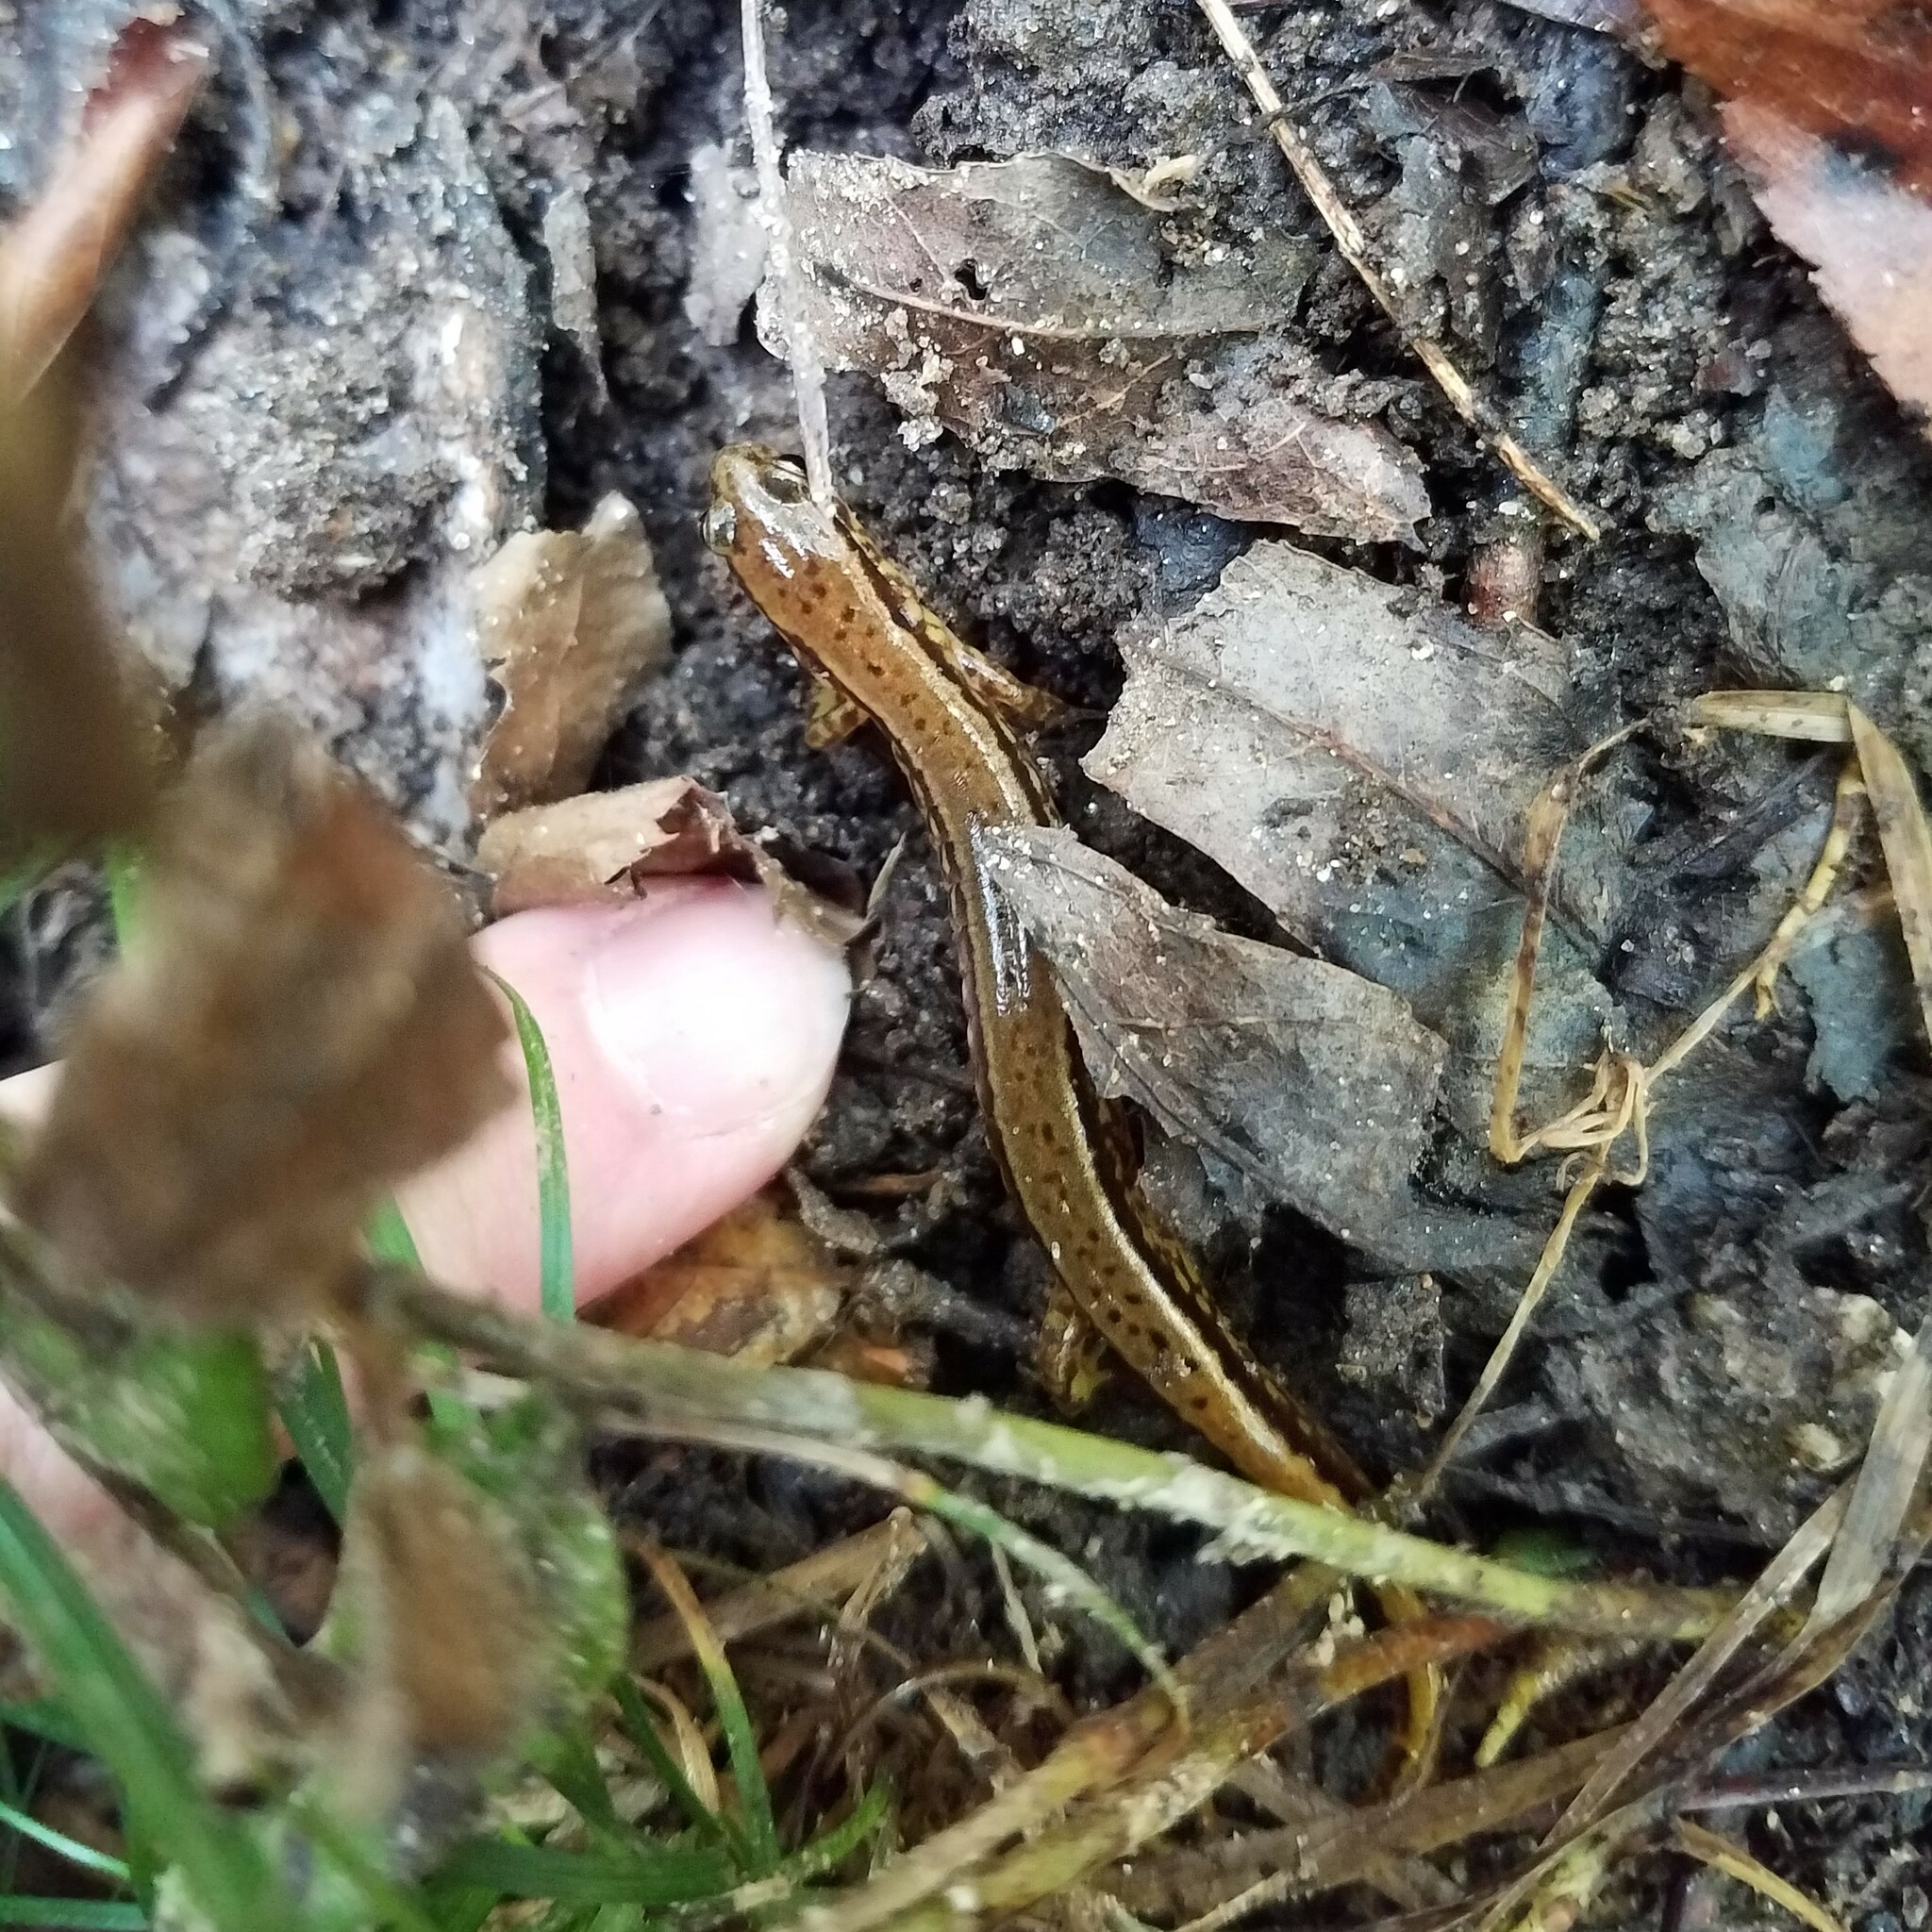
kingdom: Animalia
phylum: Chordata
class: Amphibia
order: Caudata
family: Plethodontidae
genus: Eurycea
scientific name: Eurycea cirrigera
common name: Southern two-lined salamander
